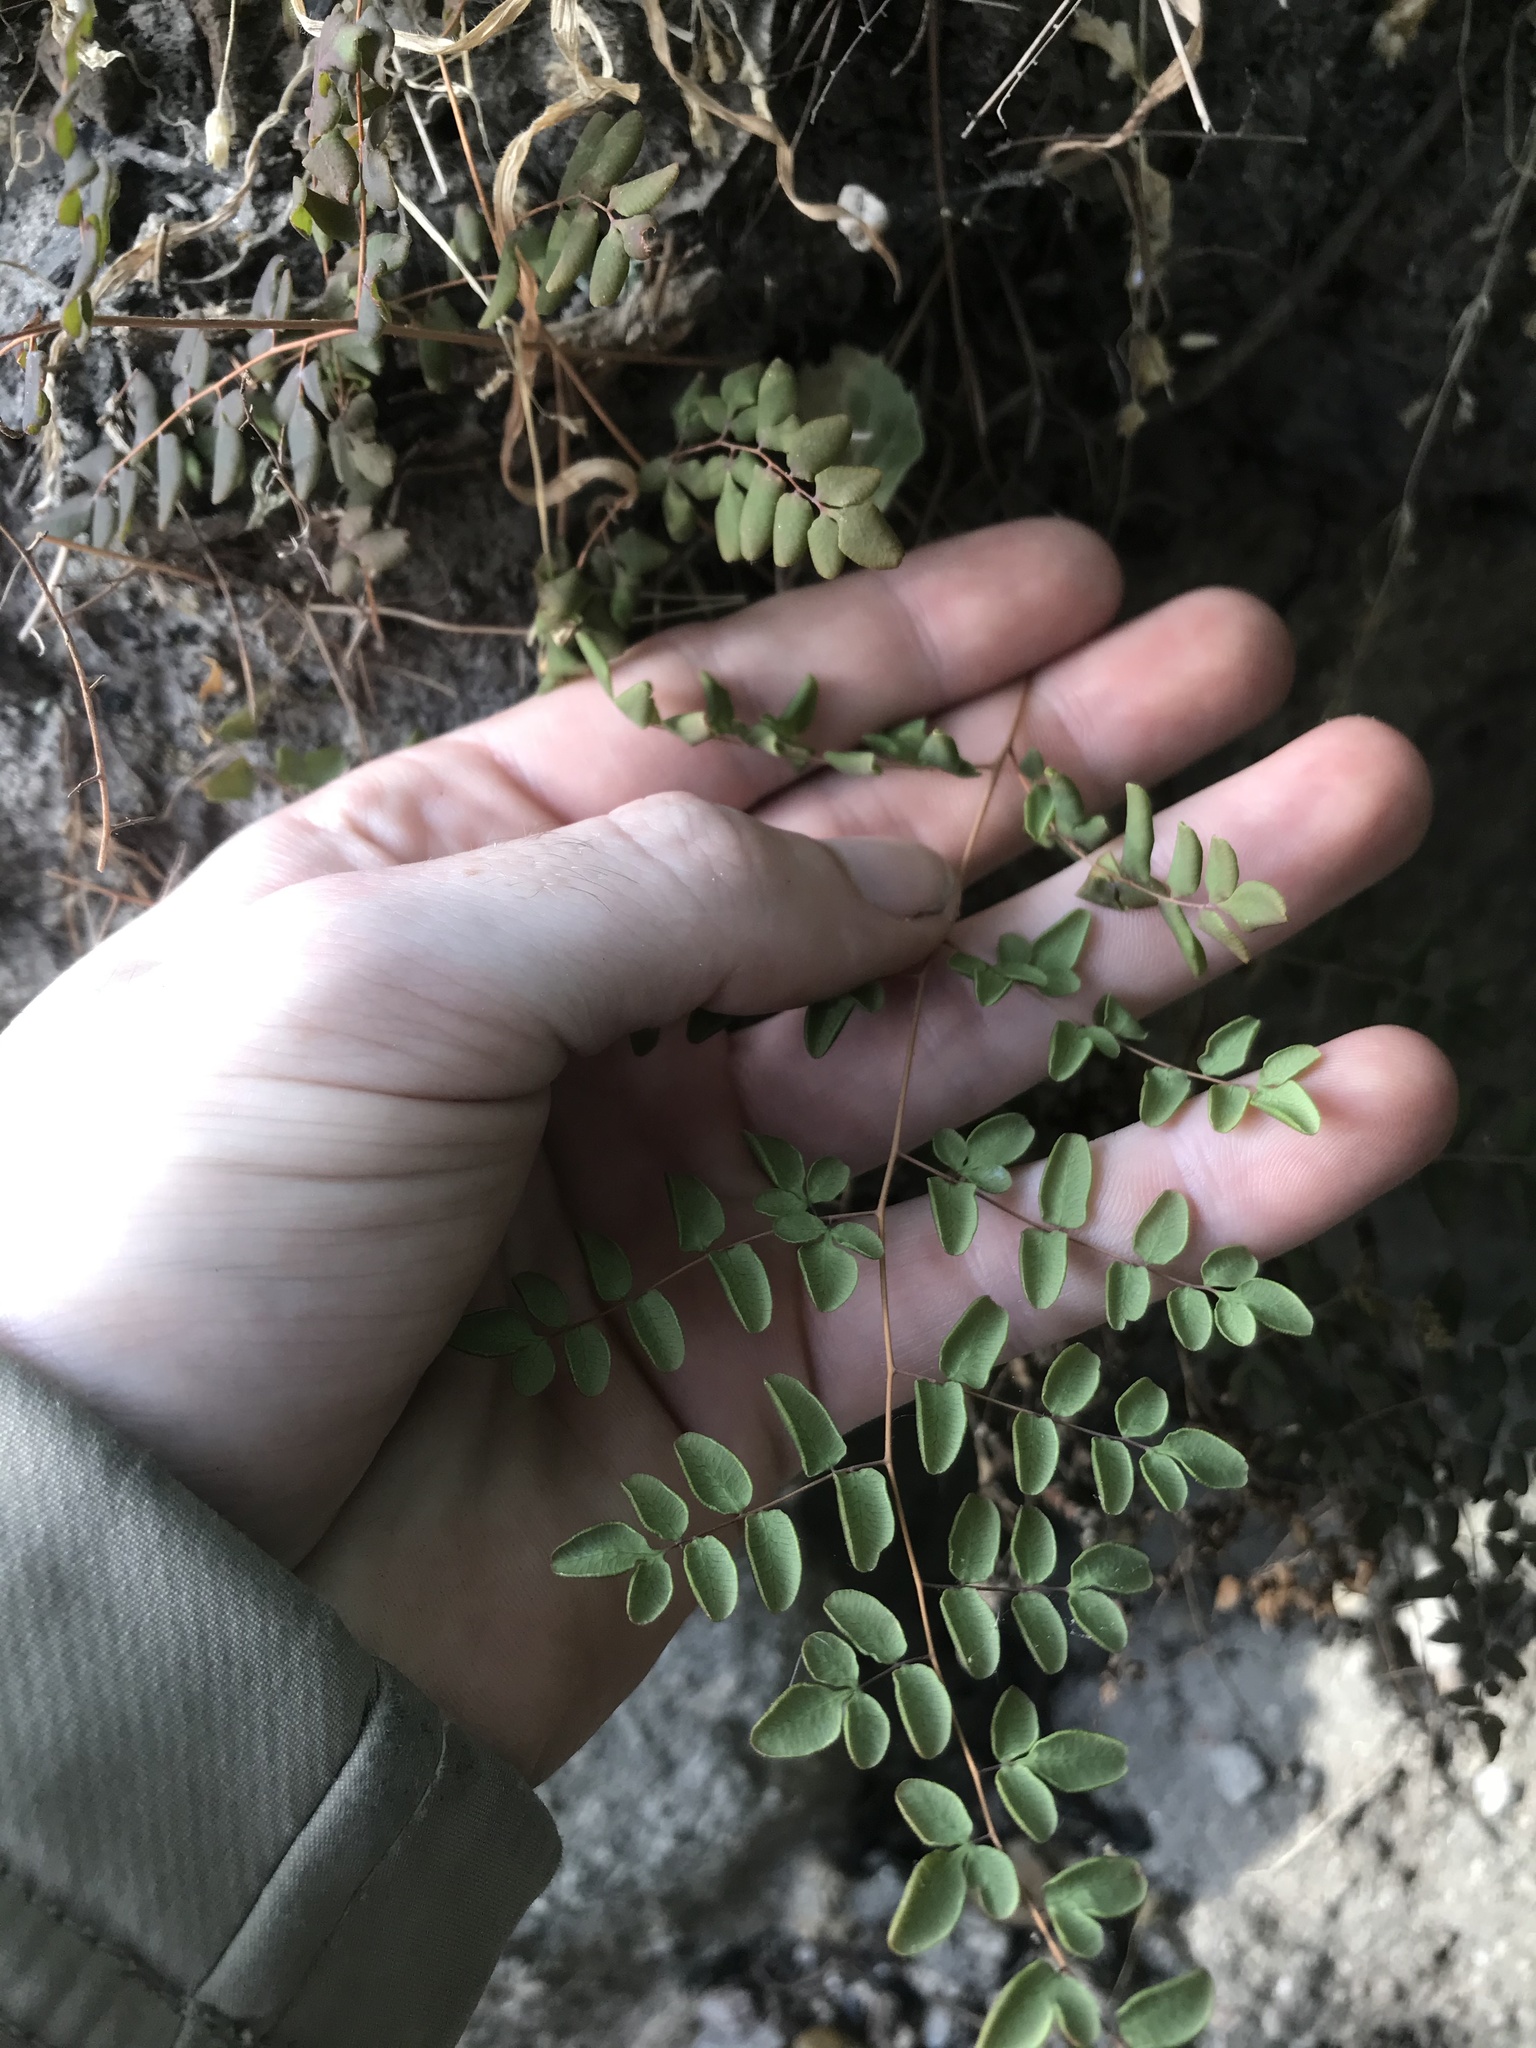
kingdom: Plantae
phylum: Tracheophyta
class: Polypodiopsida
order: Polypodiales
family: Pteridaceae
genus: Pellaea
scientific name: Pellaea andromedifolia
